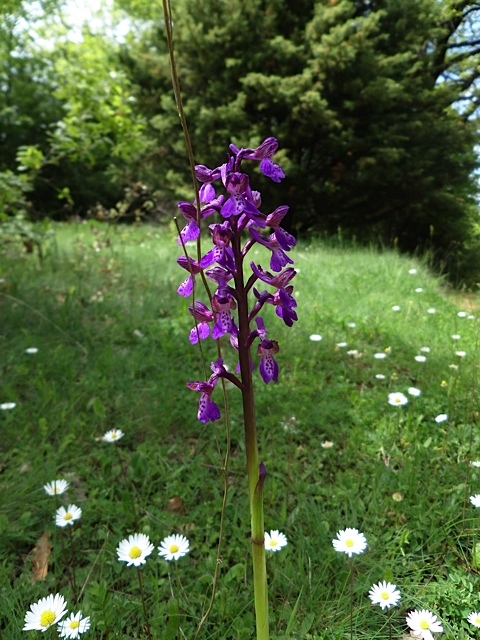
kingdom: Plantae
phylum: Tracheophyta
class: Liliopsida
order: Asparagales
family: Orchidaceae
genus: Anacamptis
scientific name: Anacamptis morio
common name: Green-winged orchid
